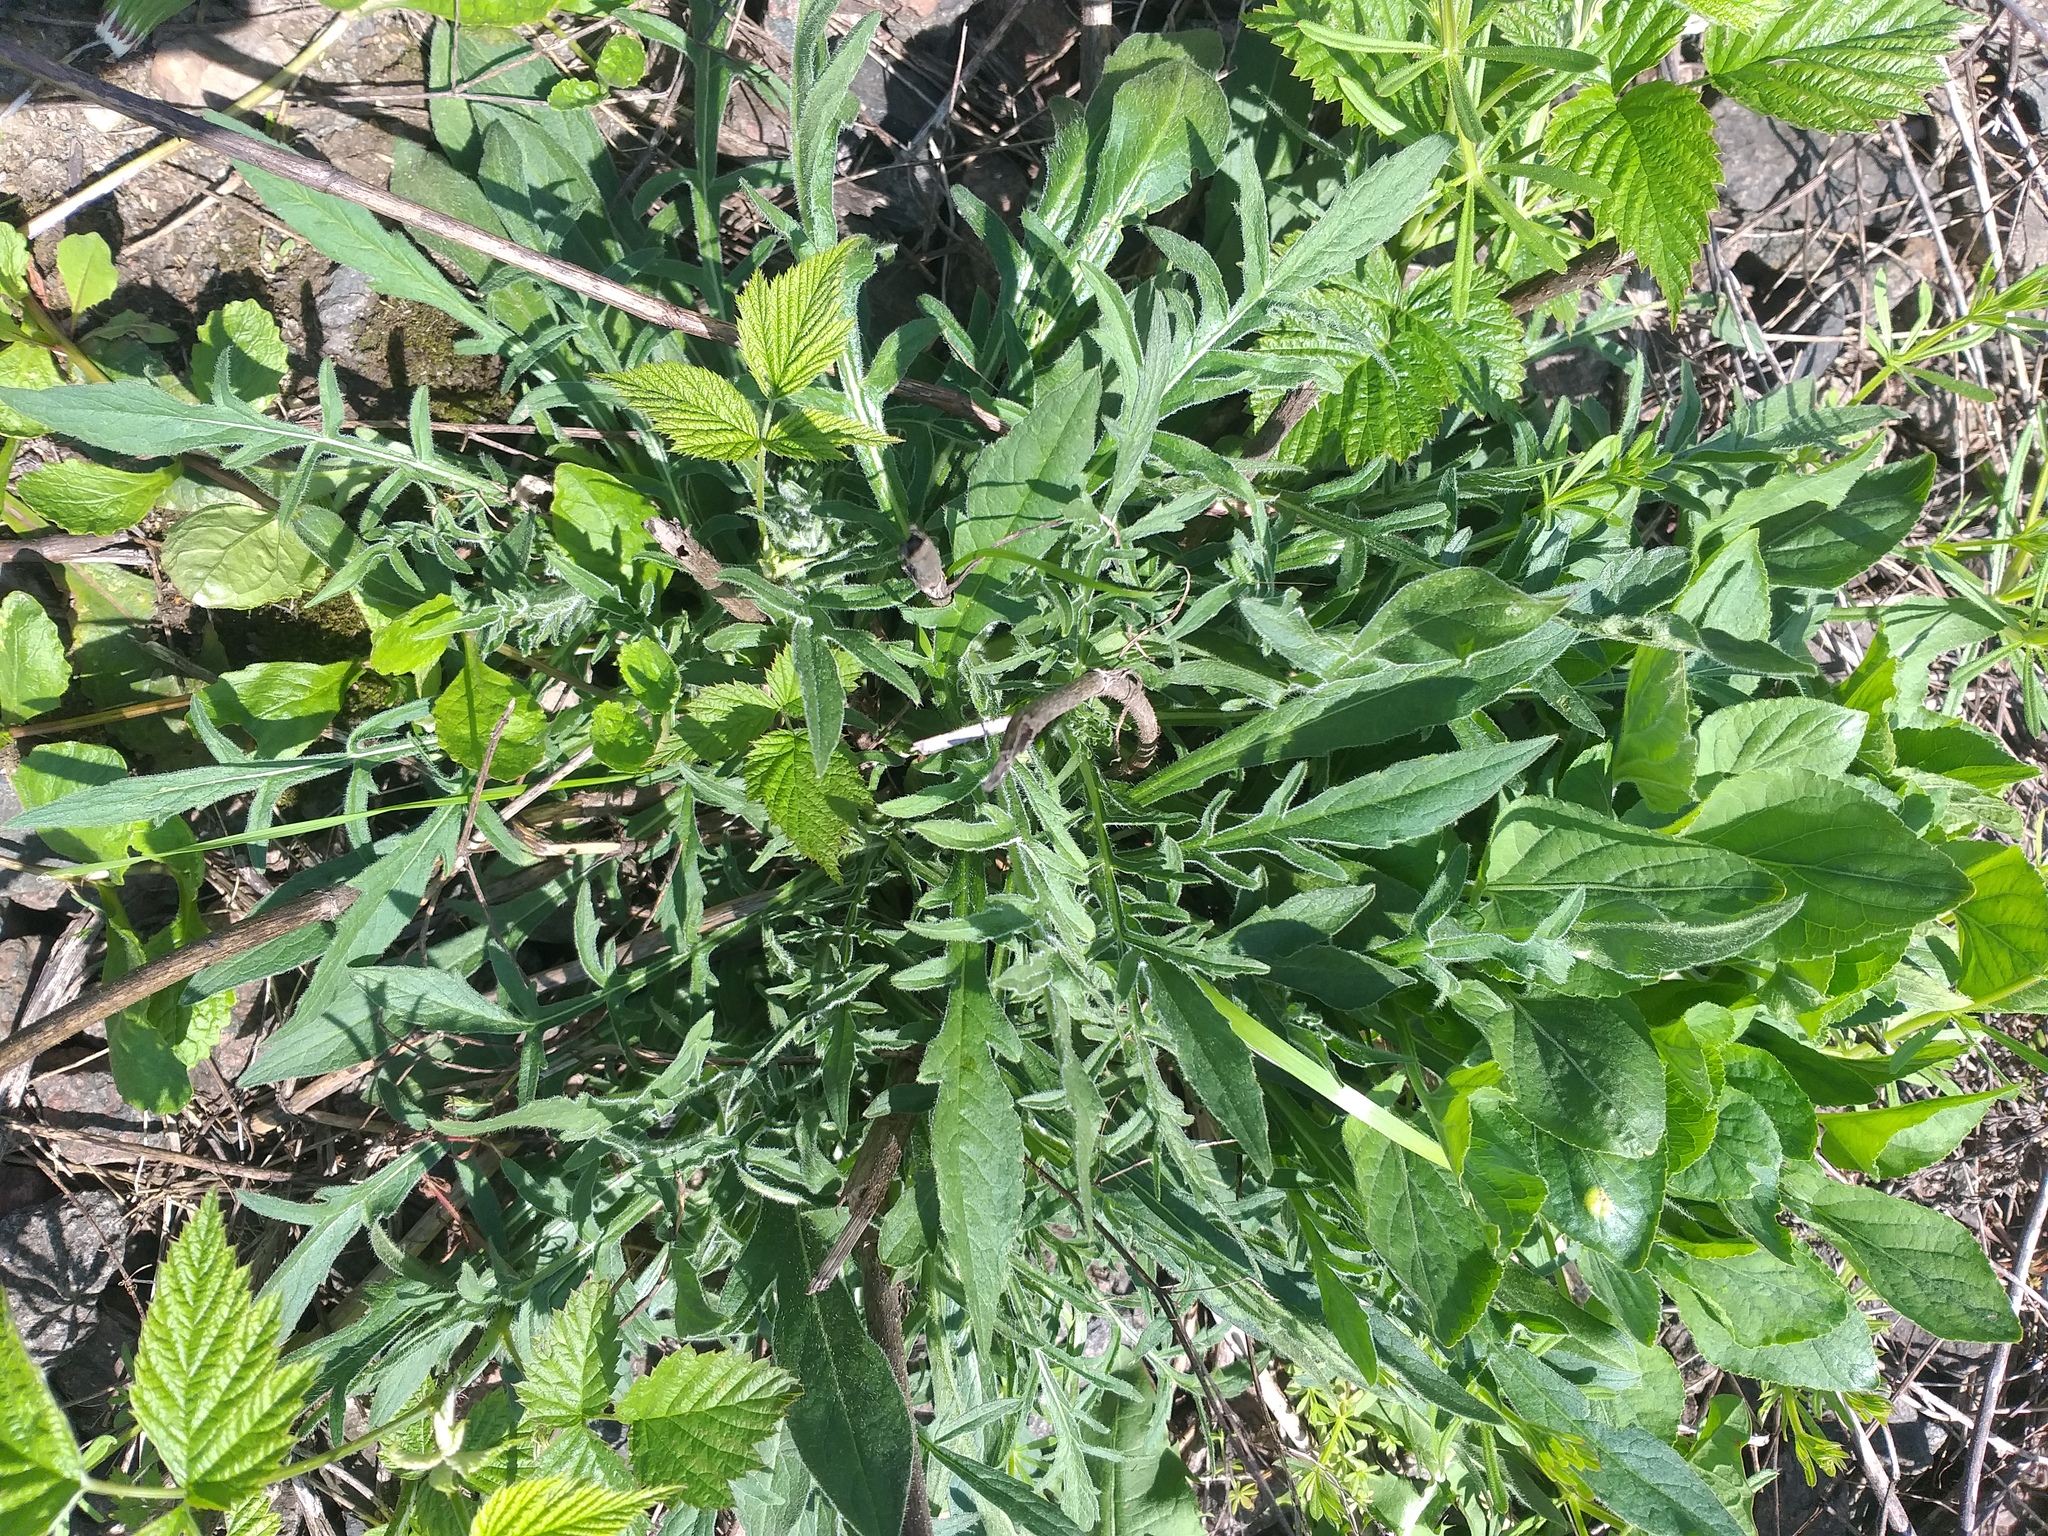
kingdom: Plantae
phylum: Tracheophyta
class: Magnoliopsida
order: Dipsacales
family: Caprifoliaceae
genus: Knautia
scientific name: Knautia arvensis
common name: Field scabiosa
